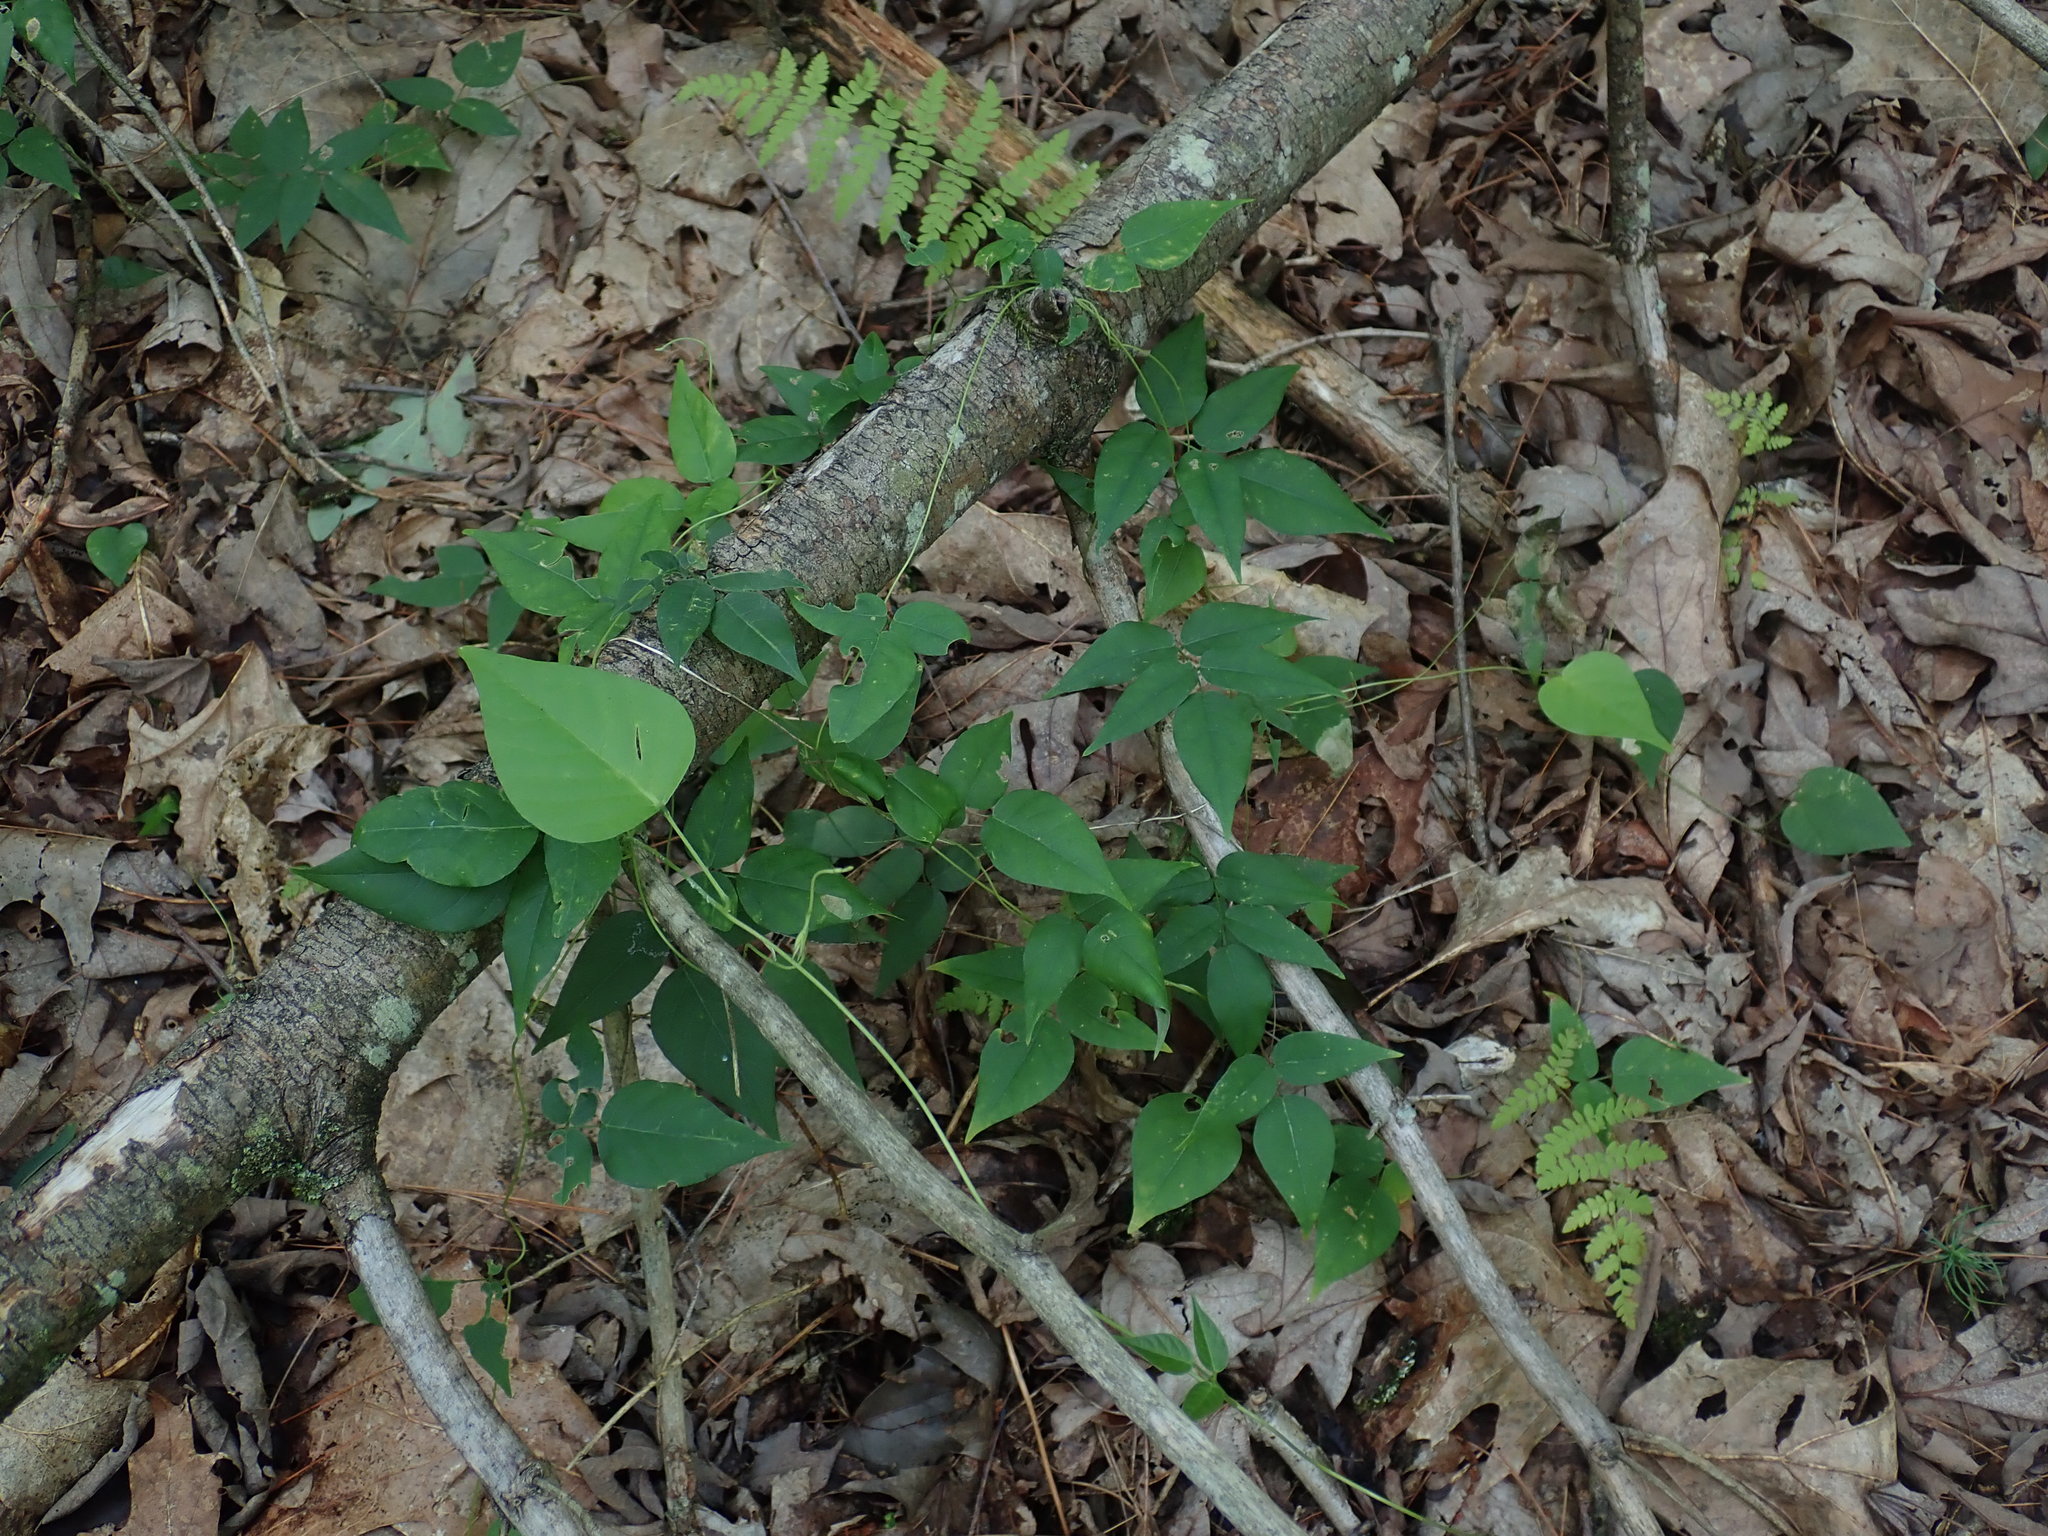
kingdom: Plantae
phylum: Tracheophyta
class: Magnoliopsida
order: Fabales
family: Fabaceae
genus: Apios
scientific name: Apios americana
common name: American potato-bean
